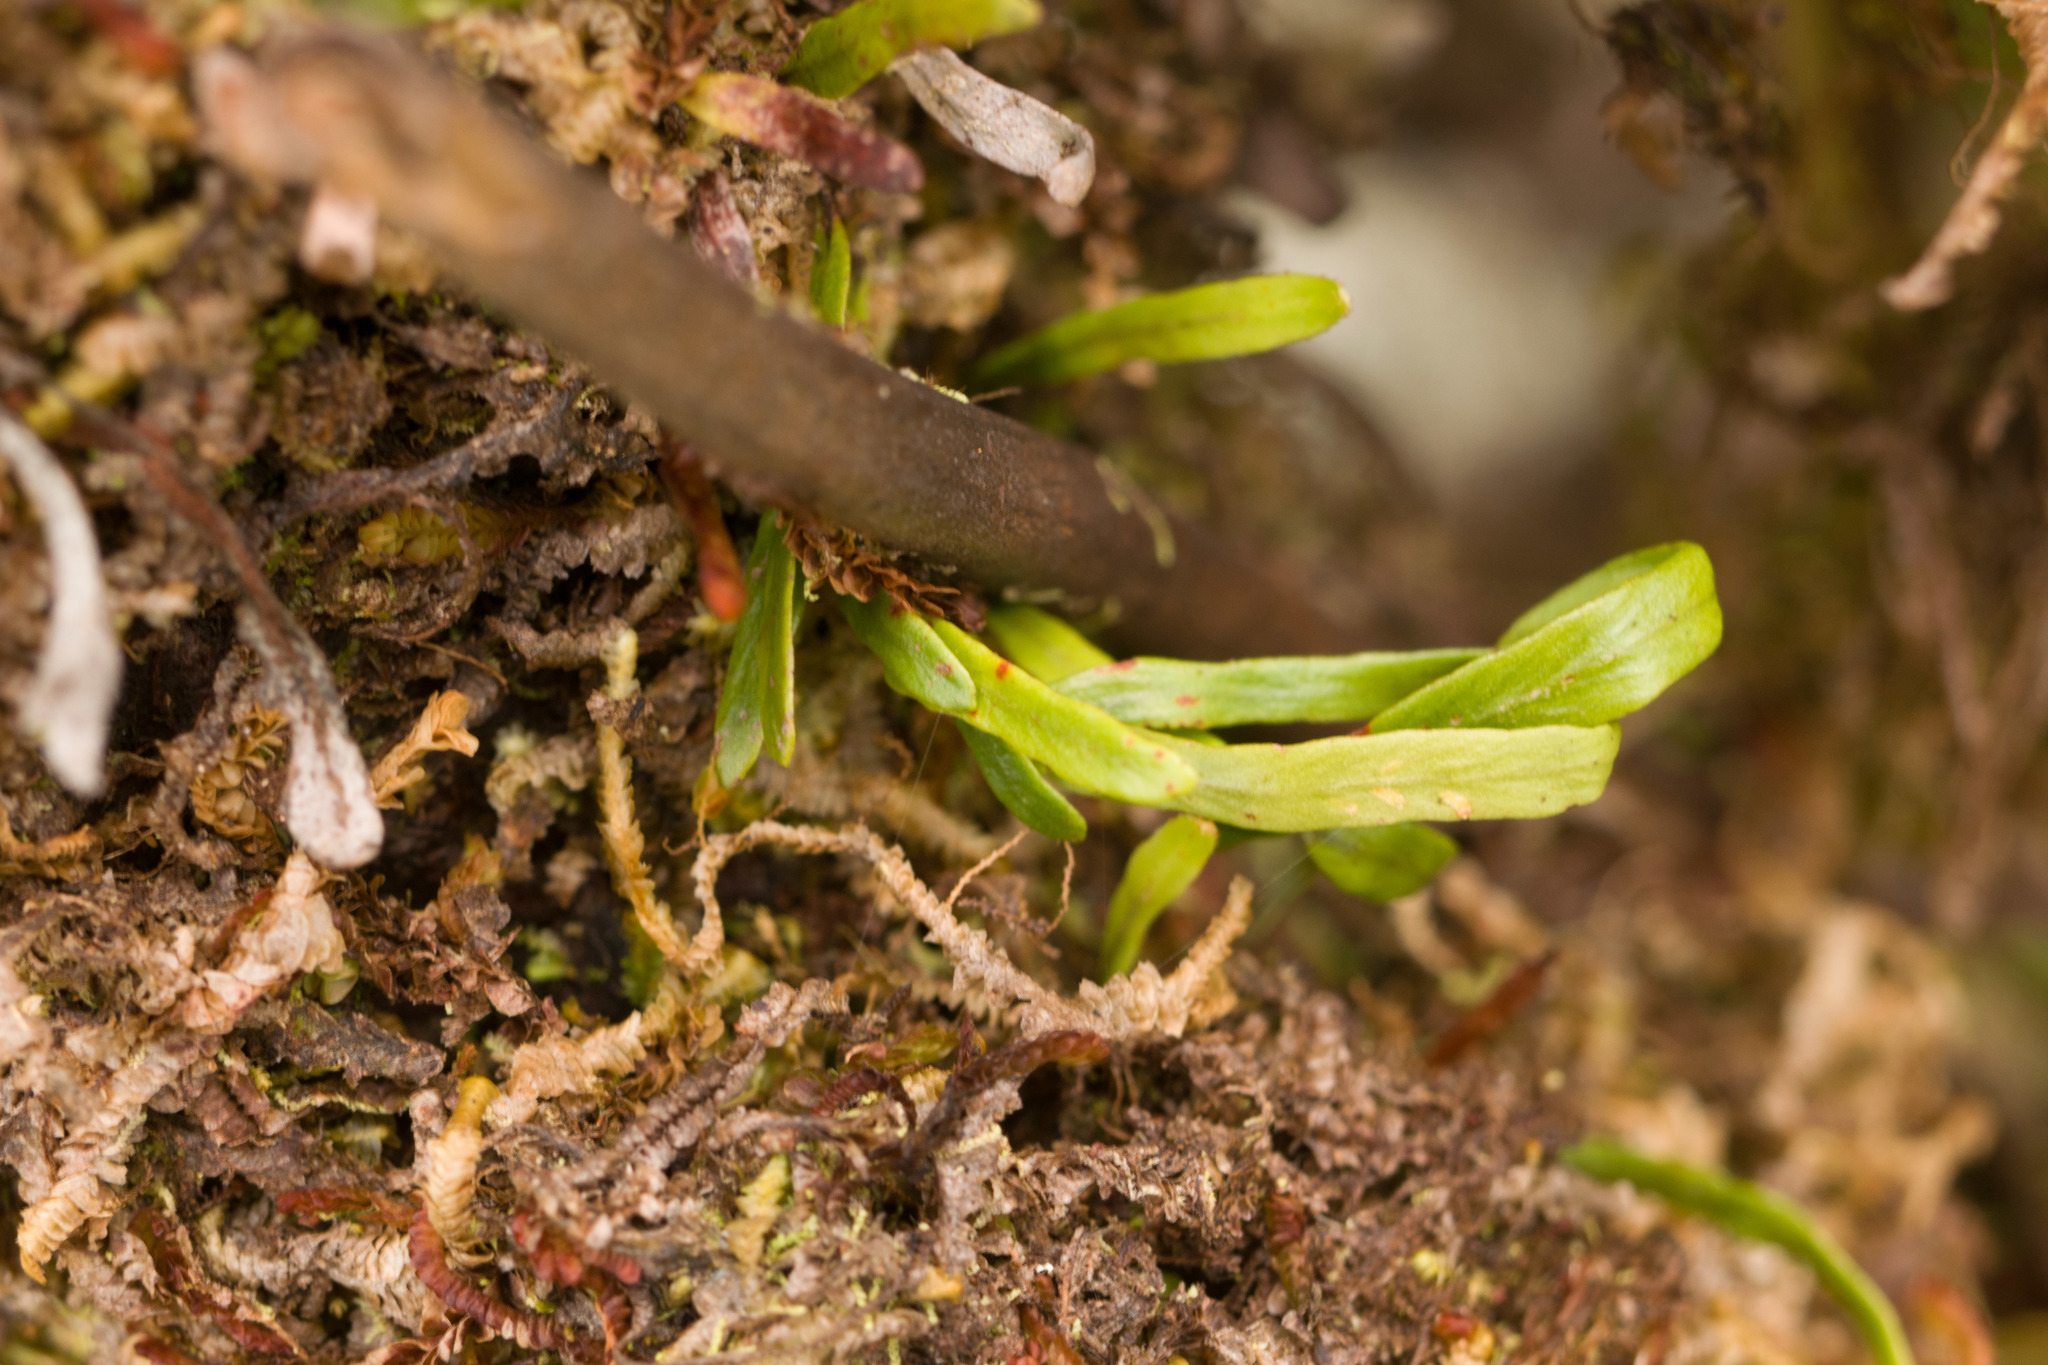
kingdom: Plantae
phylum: Tracheophyta
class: Polypodiopsida
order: Polypodiales
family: Polypodiaceae
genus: Adenophorus
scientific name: Adenophorus tenellus
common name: Kolokolo
